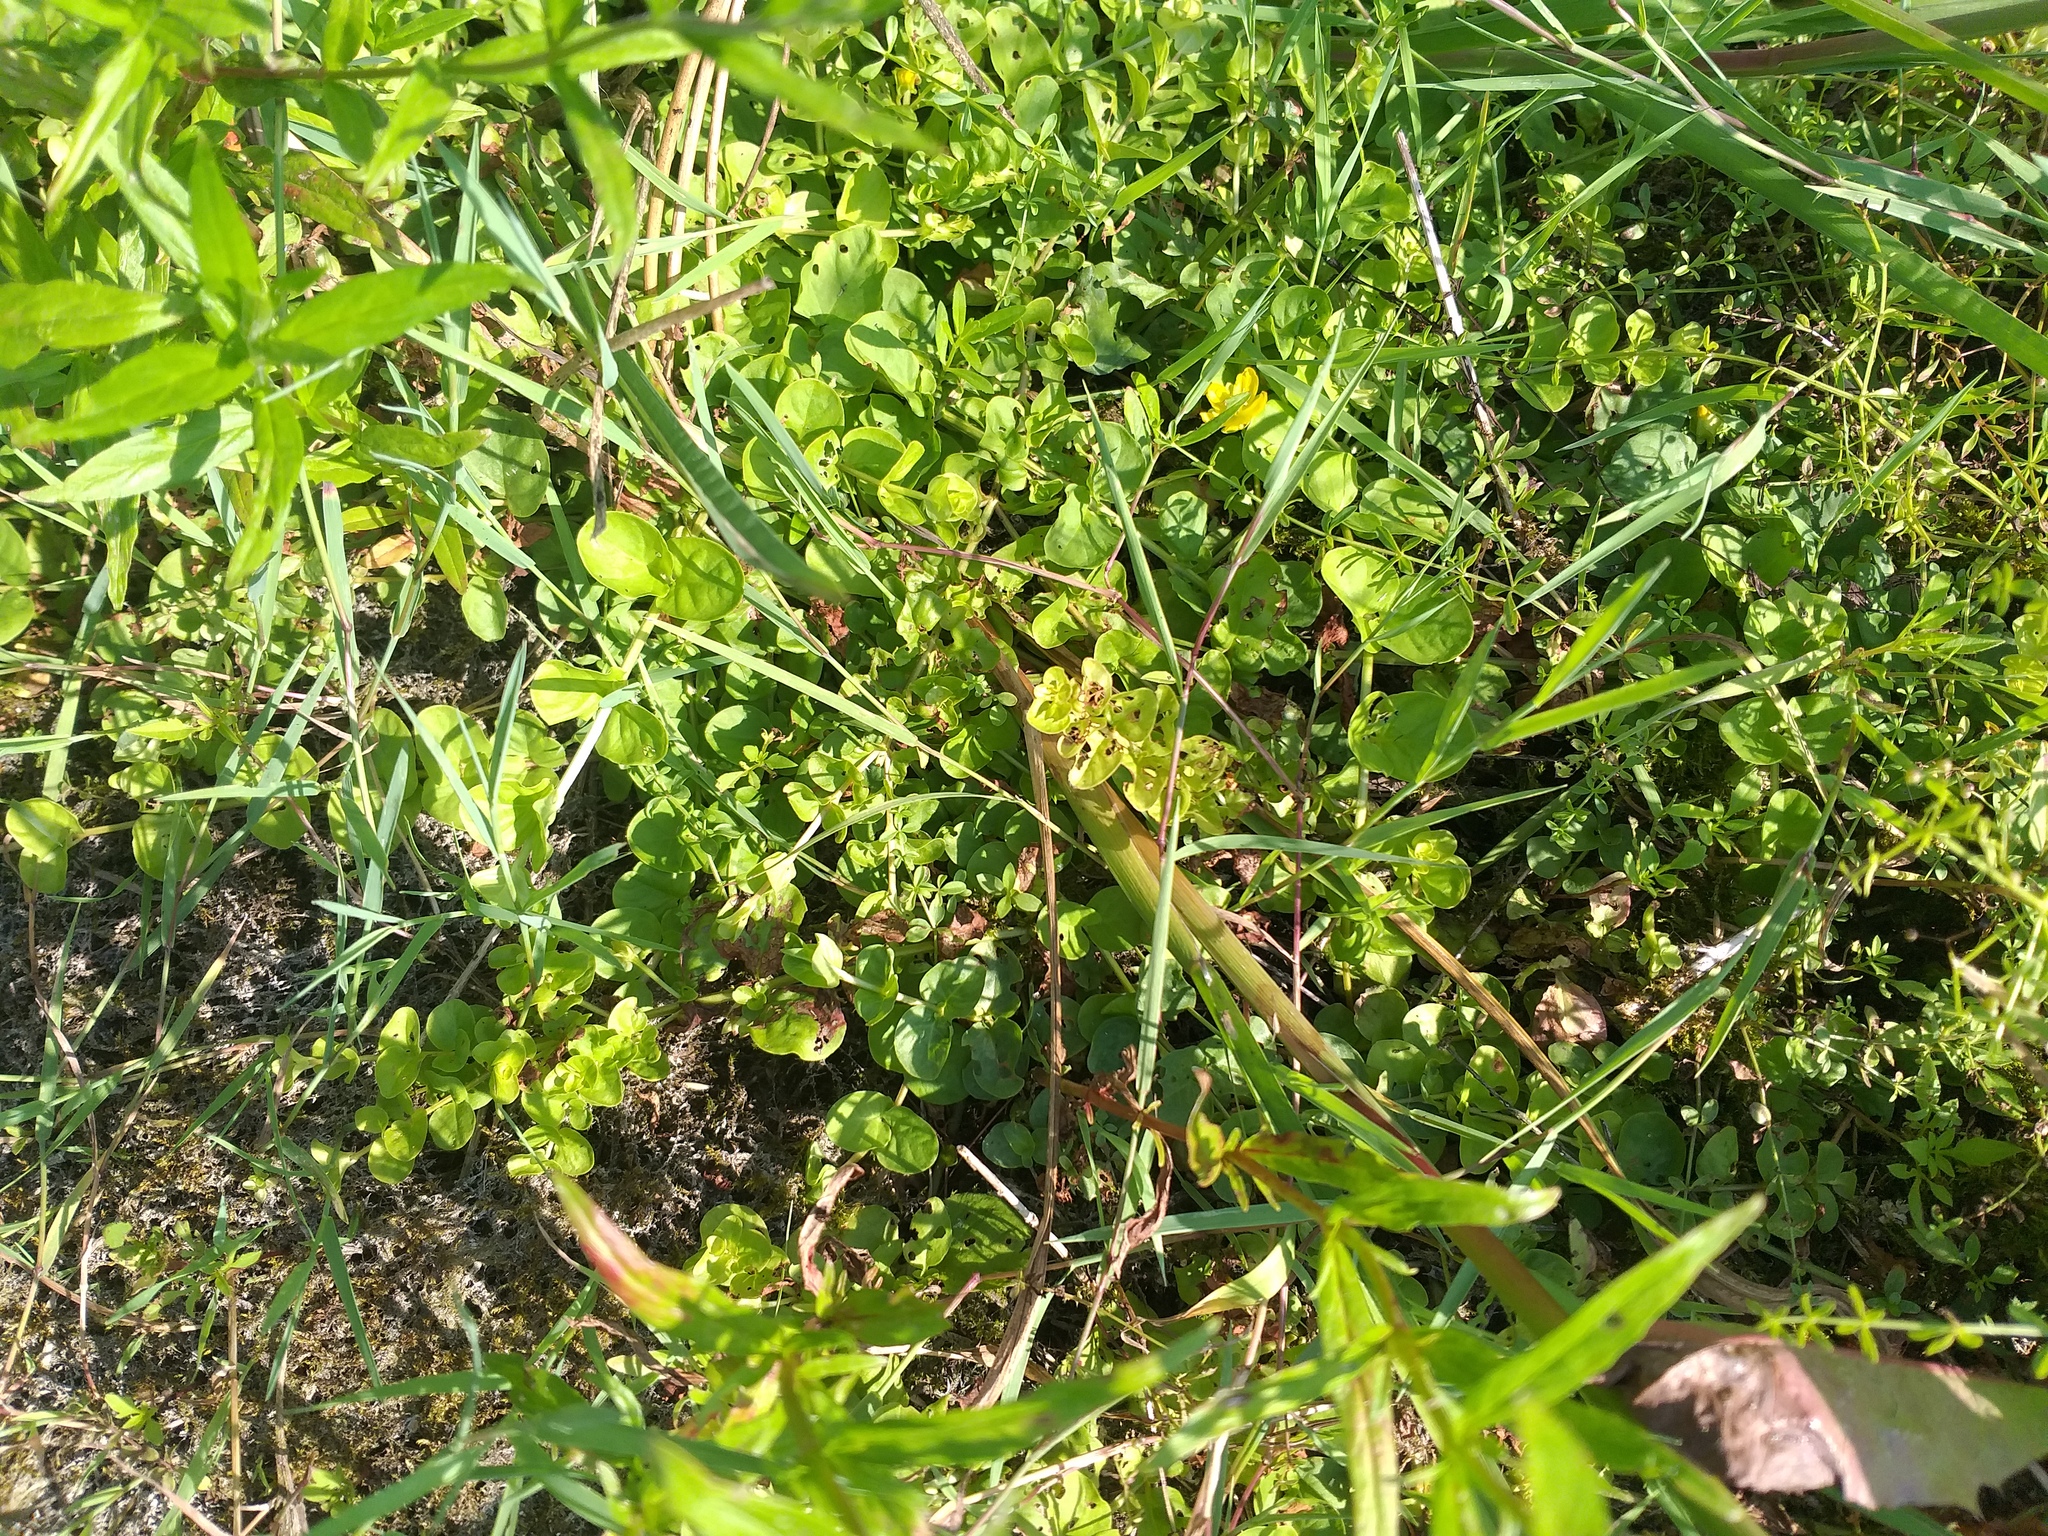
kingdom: Plantae
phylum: Tracheophyta
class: Magnoliopsida
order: Ericales
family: Primulaceae
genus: Lysimachia
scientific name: Lysimachia nummularia
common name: Moneywort
